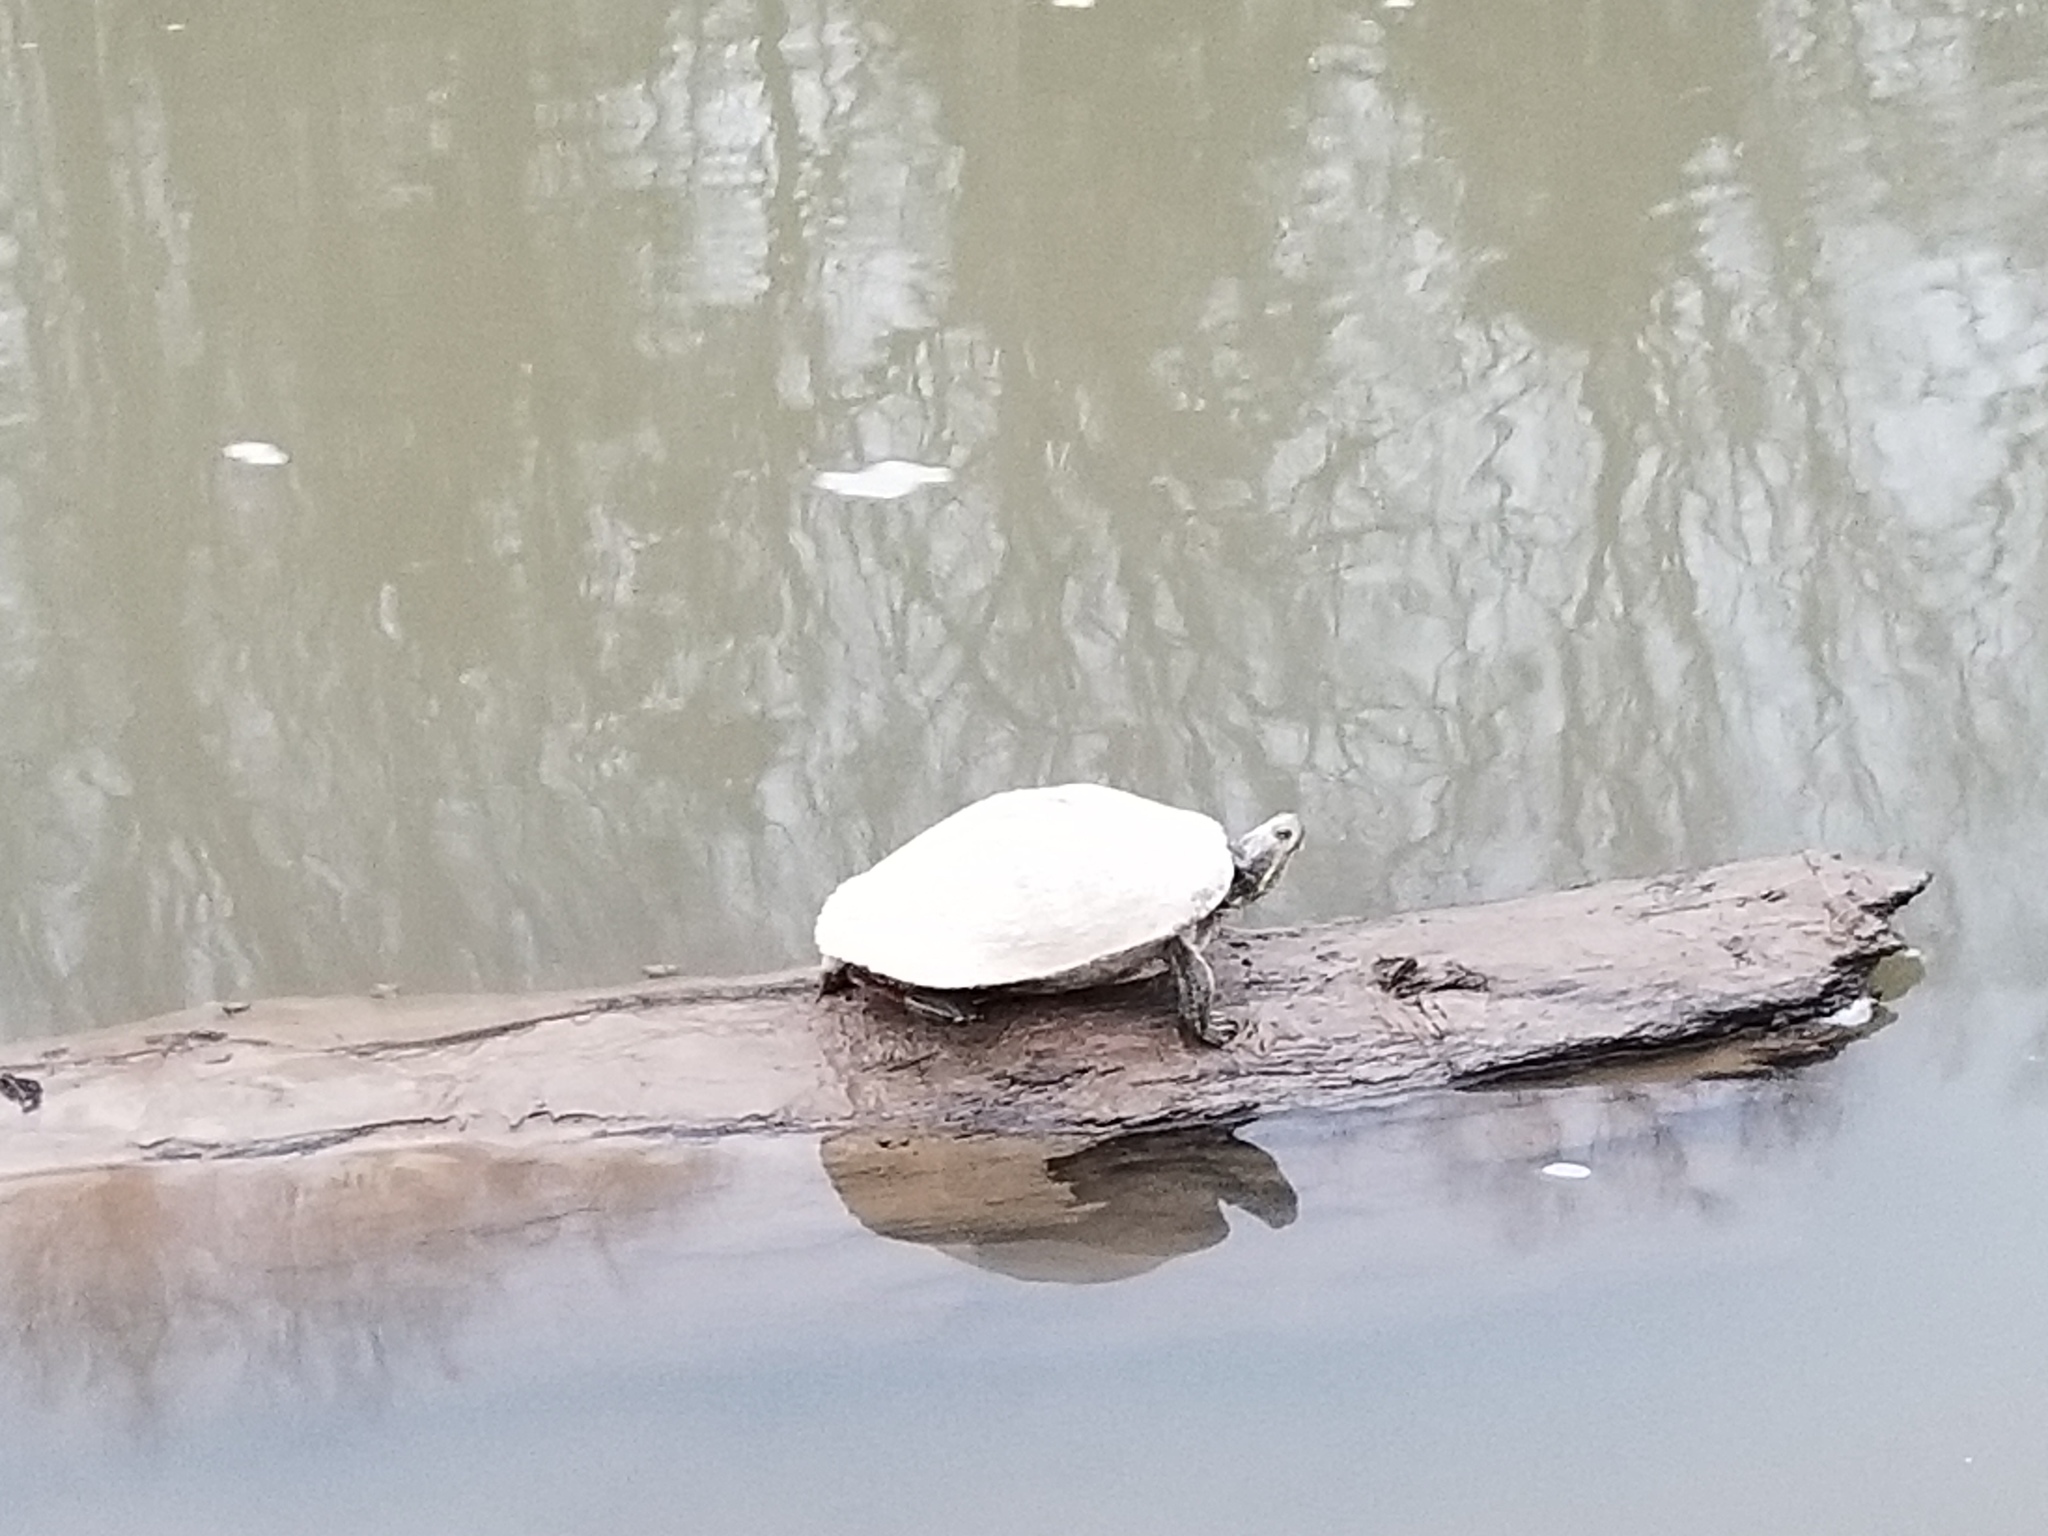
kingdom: Animalia
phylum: Chordata
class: Testudines
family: Emydidae
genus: Trachemys
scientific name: Trachemys scripta
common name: Slider
